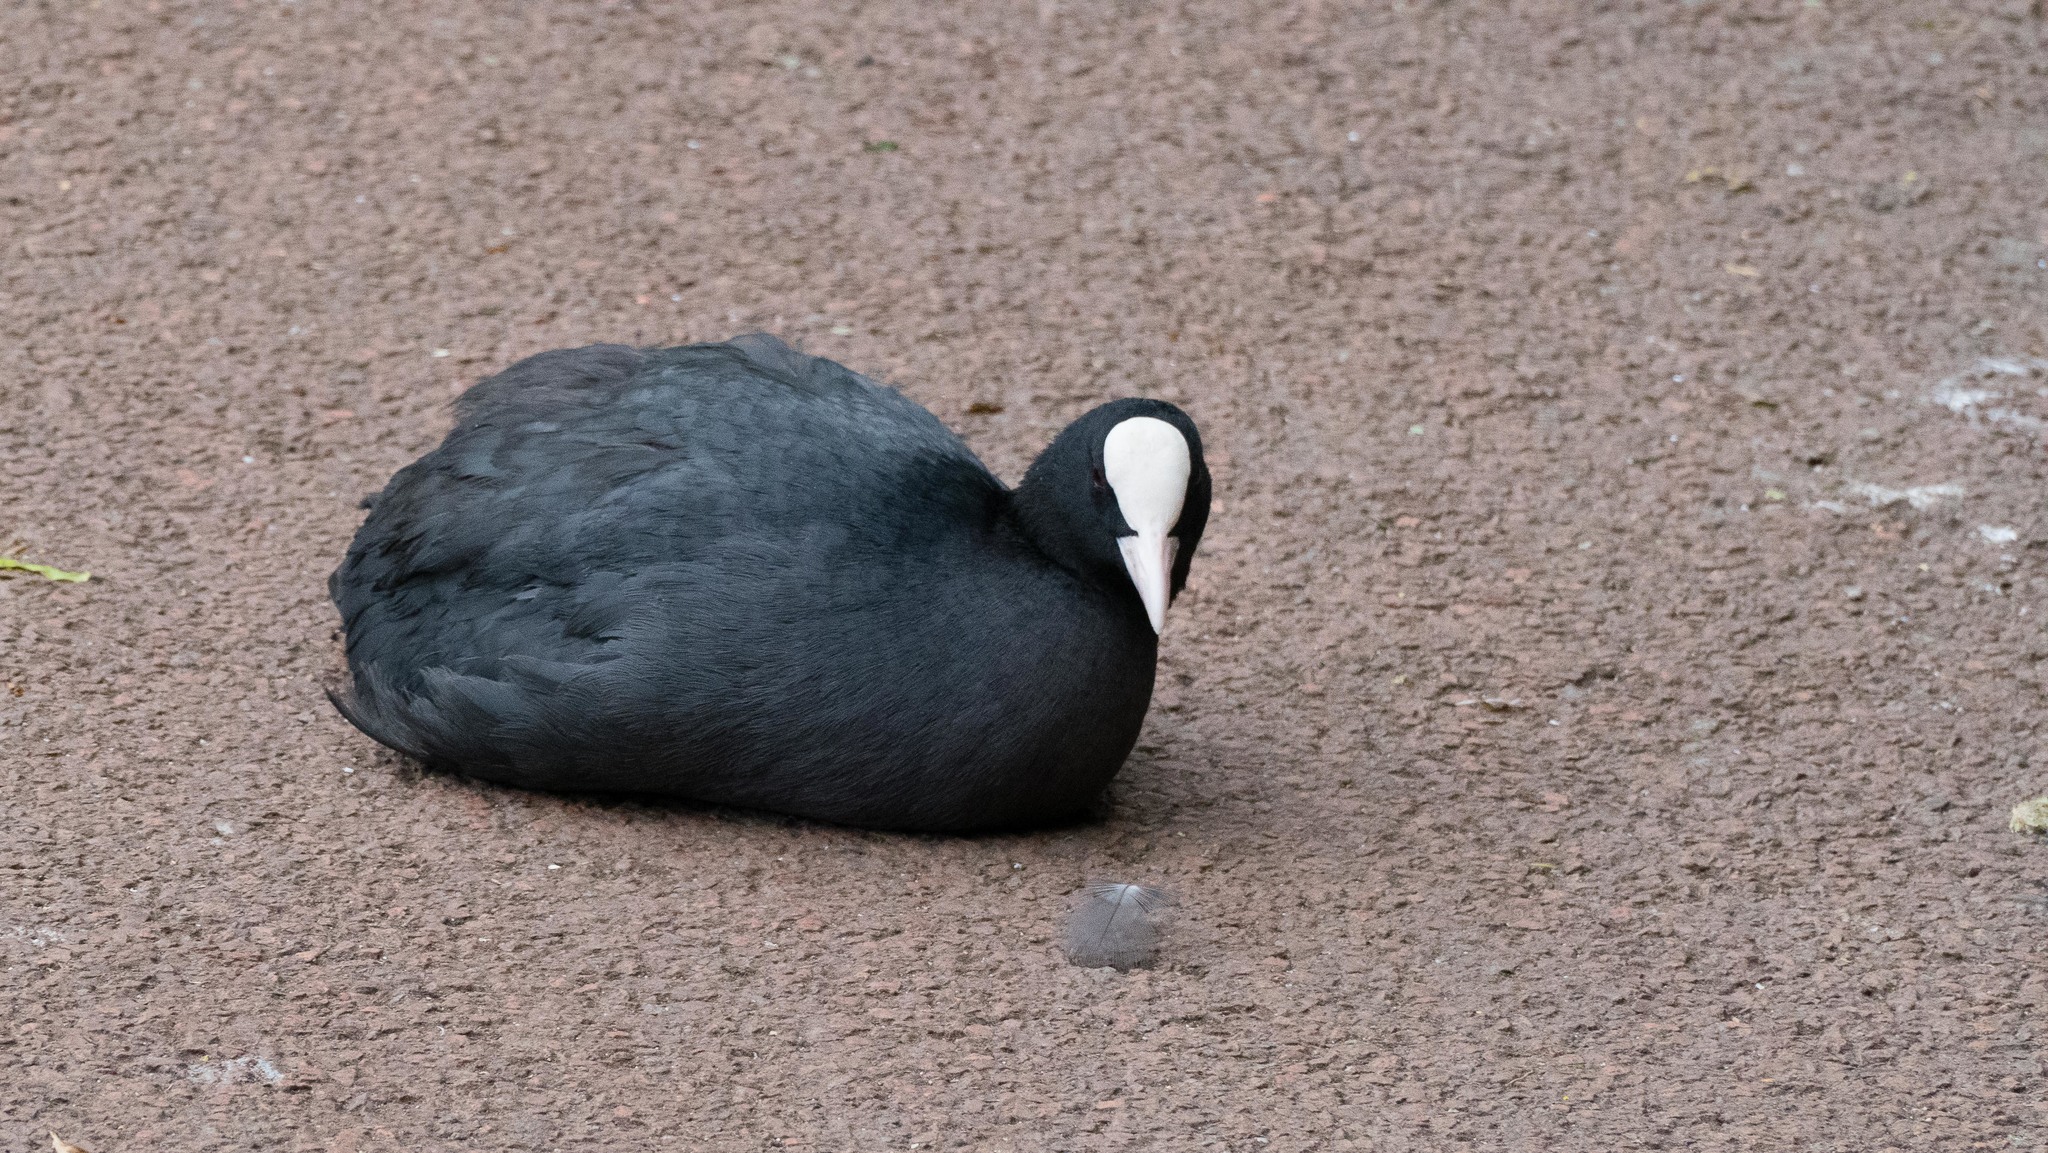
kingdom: Animalia
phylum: Chordata
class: Aves
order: Gruiformes
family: Rallidae
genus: Fulica
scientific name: Fulica atra
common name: Eurasian coot
